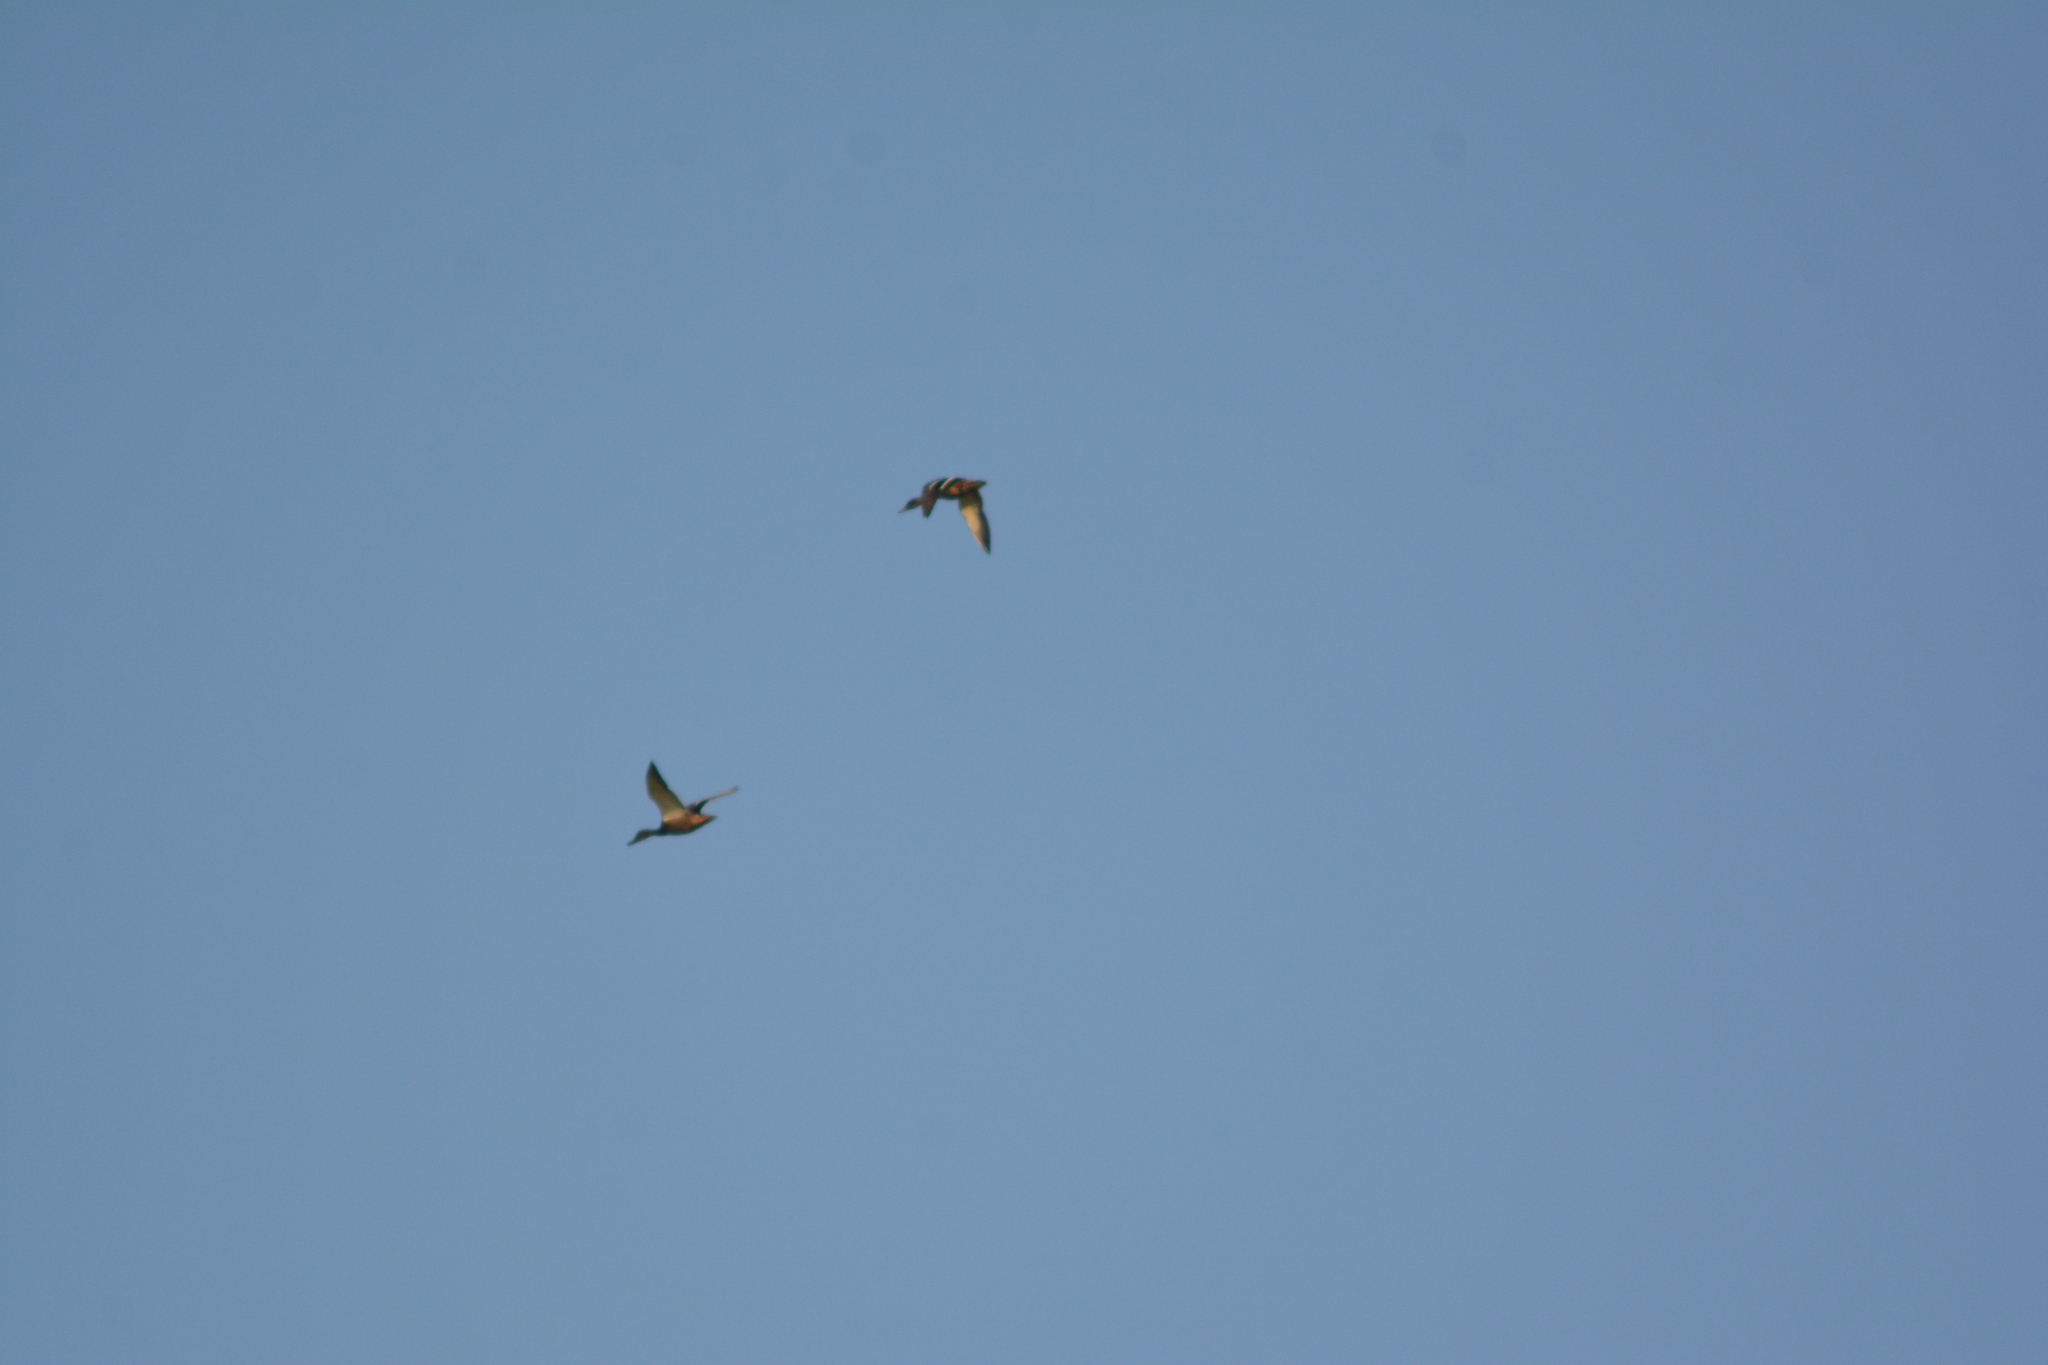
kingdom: Animalia
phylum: Chordata
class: Aves
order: Anseriformes
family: Anatidae
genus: Anas
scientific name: Anas platyrhynchos
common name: Mallard
